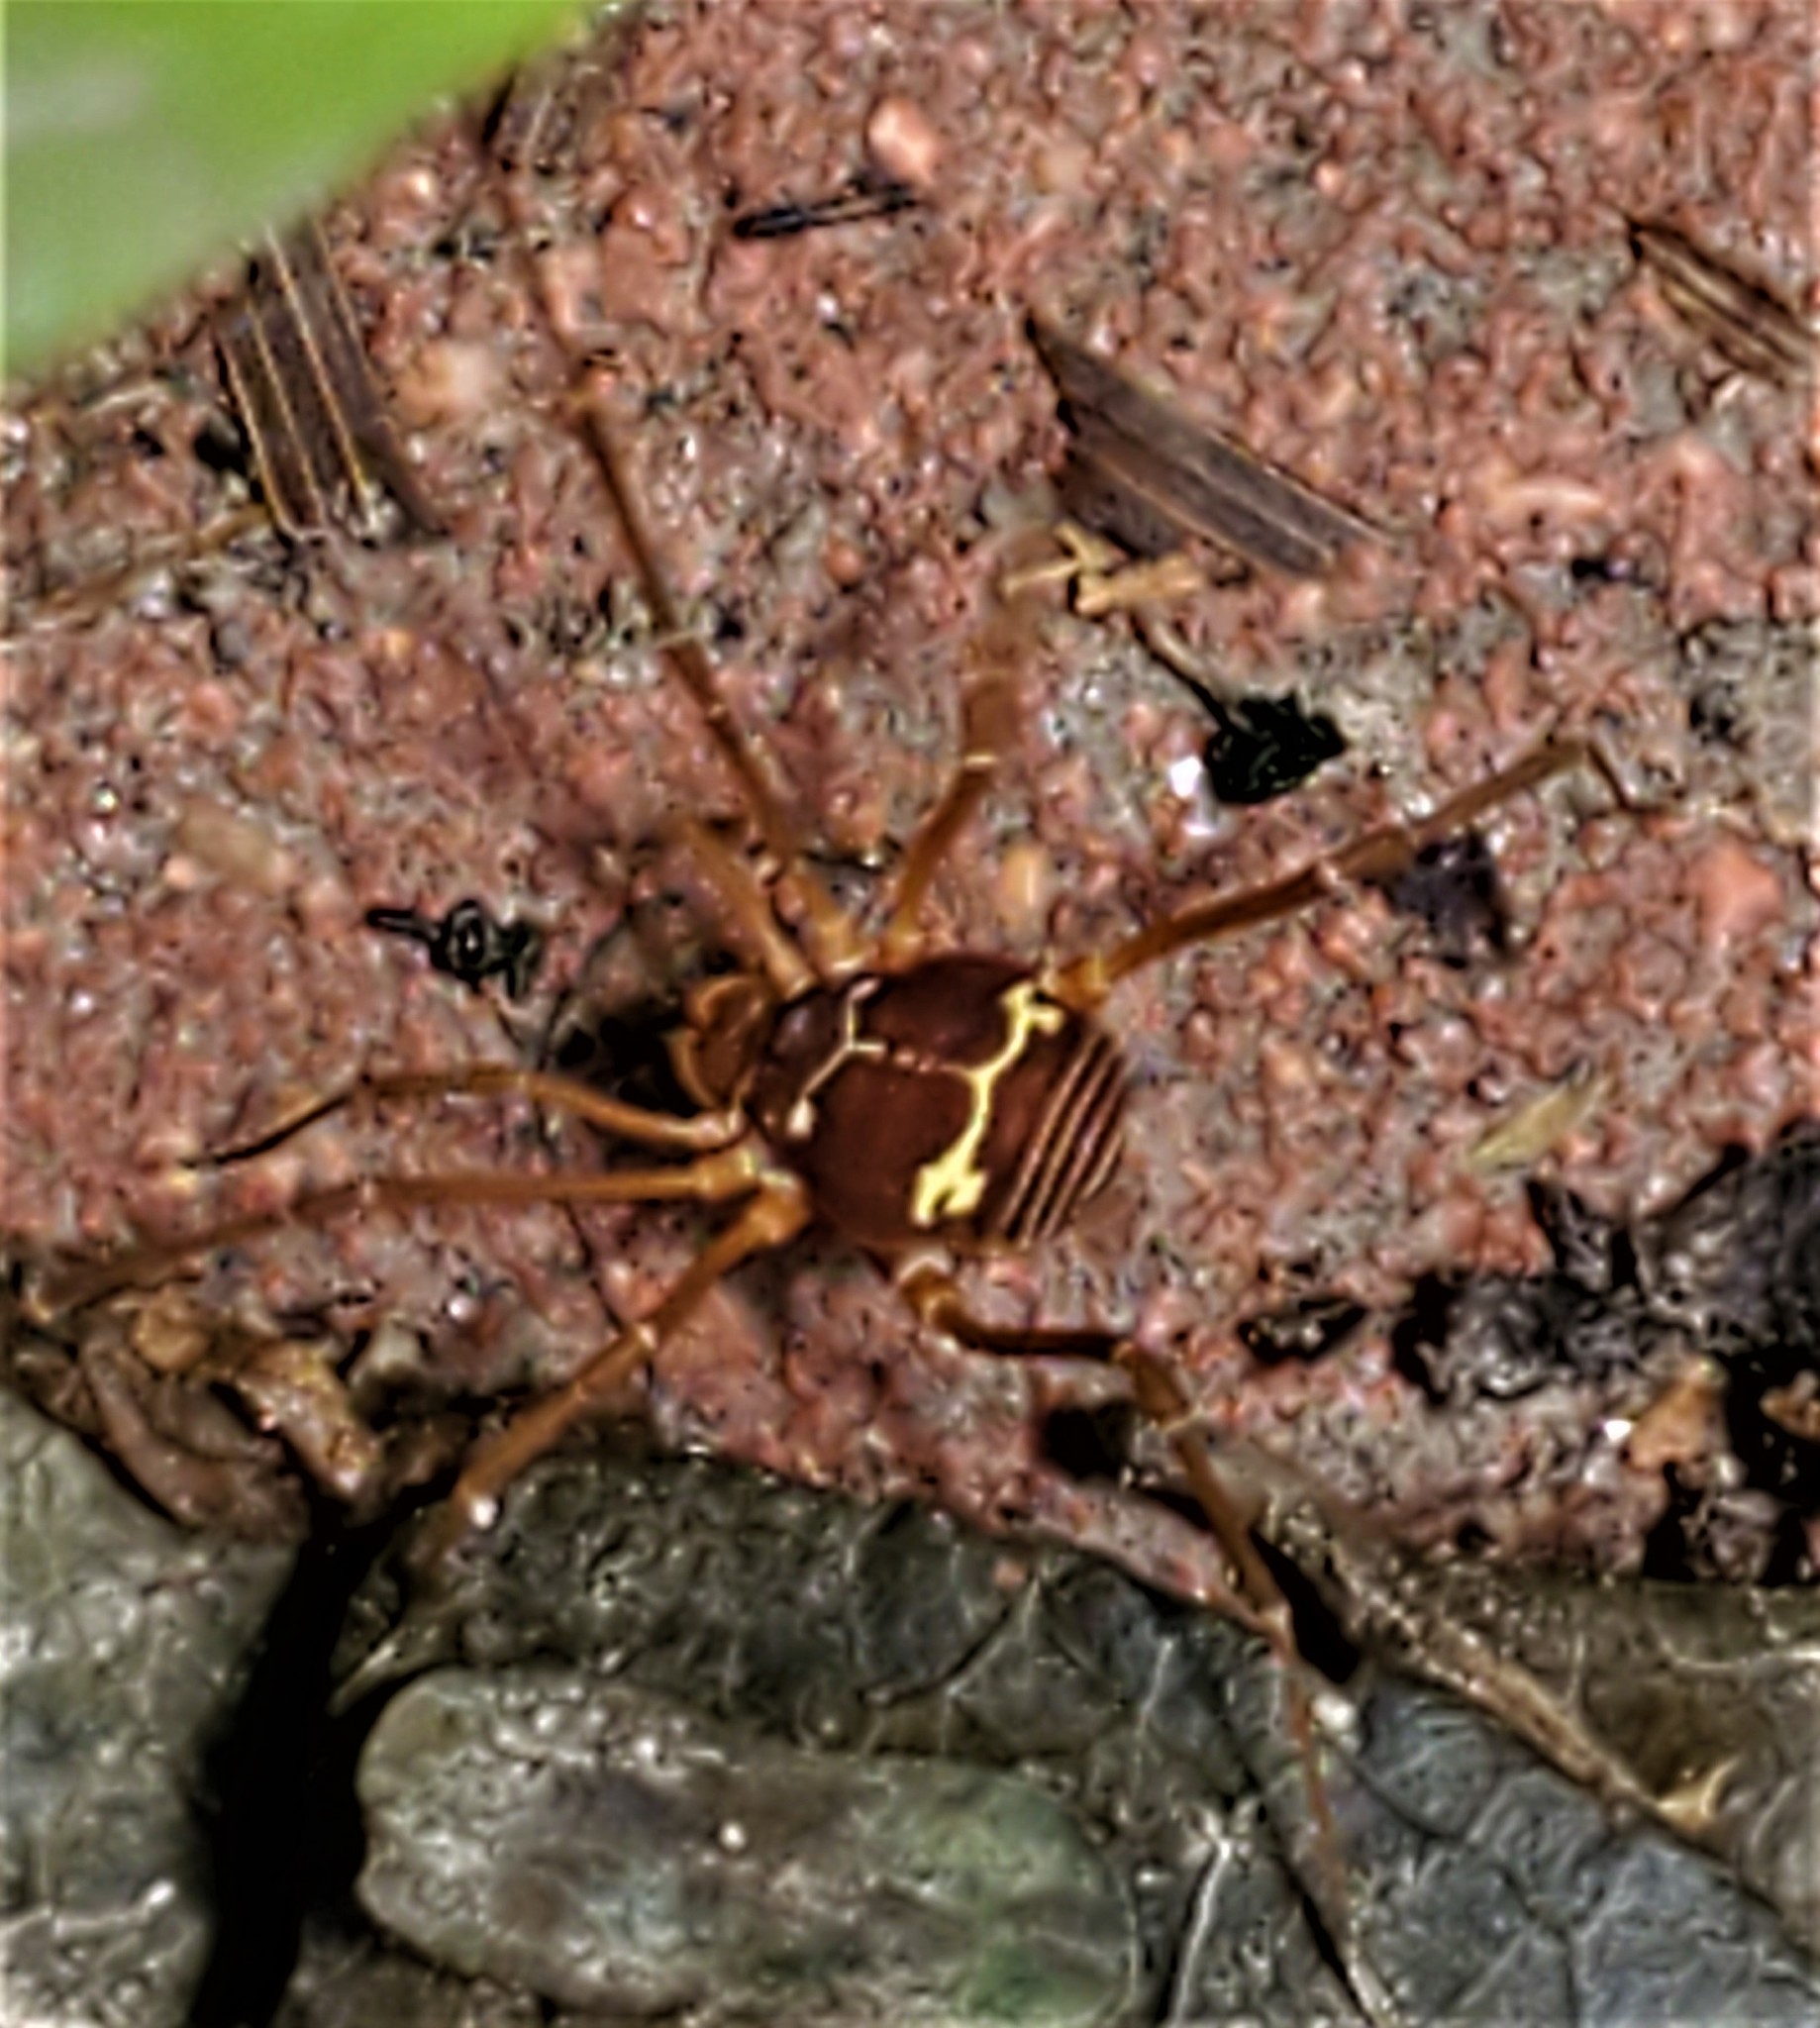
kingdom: Animalia
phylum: Arthropoda
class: Arachnida
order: Opiliones
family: Cosmetidae
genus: Cynorta
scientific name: Cynorta triangulata
